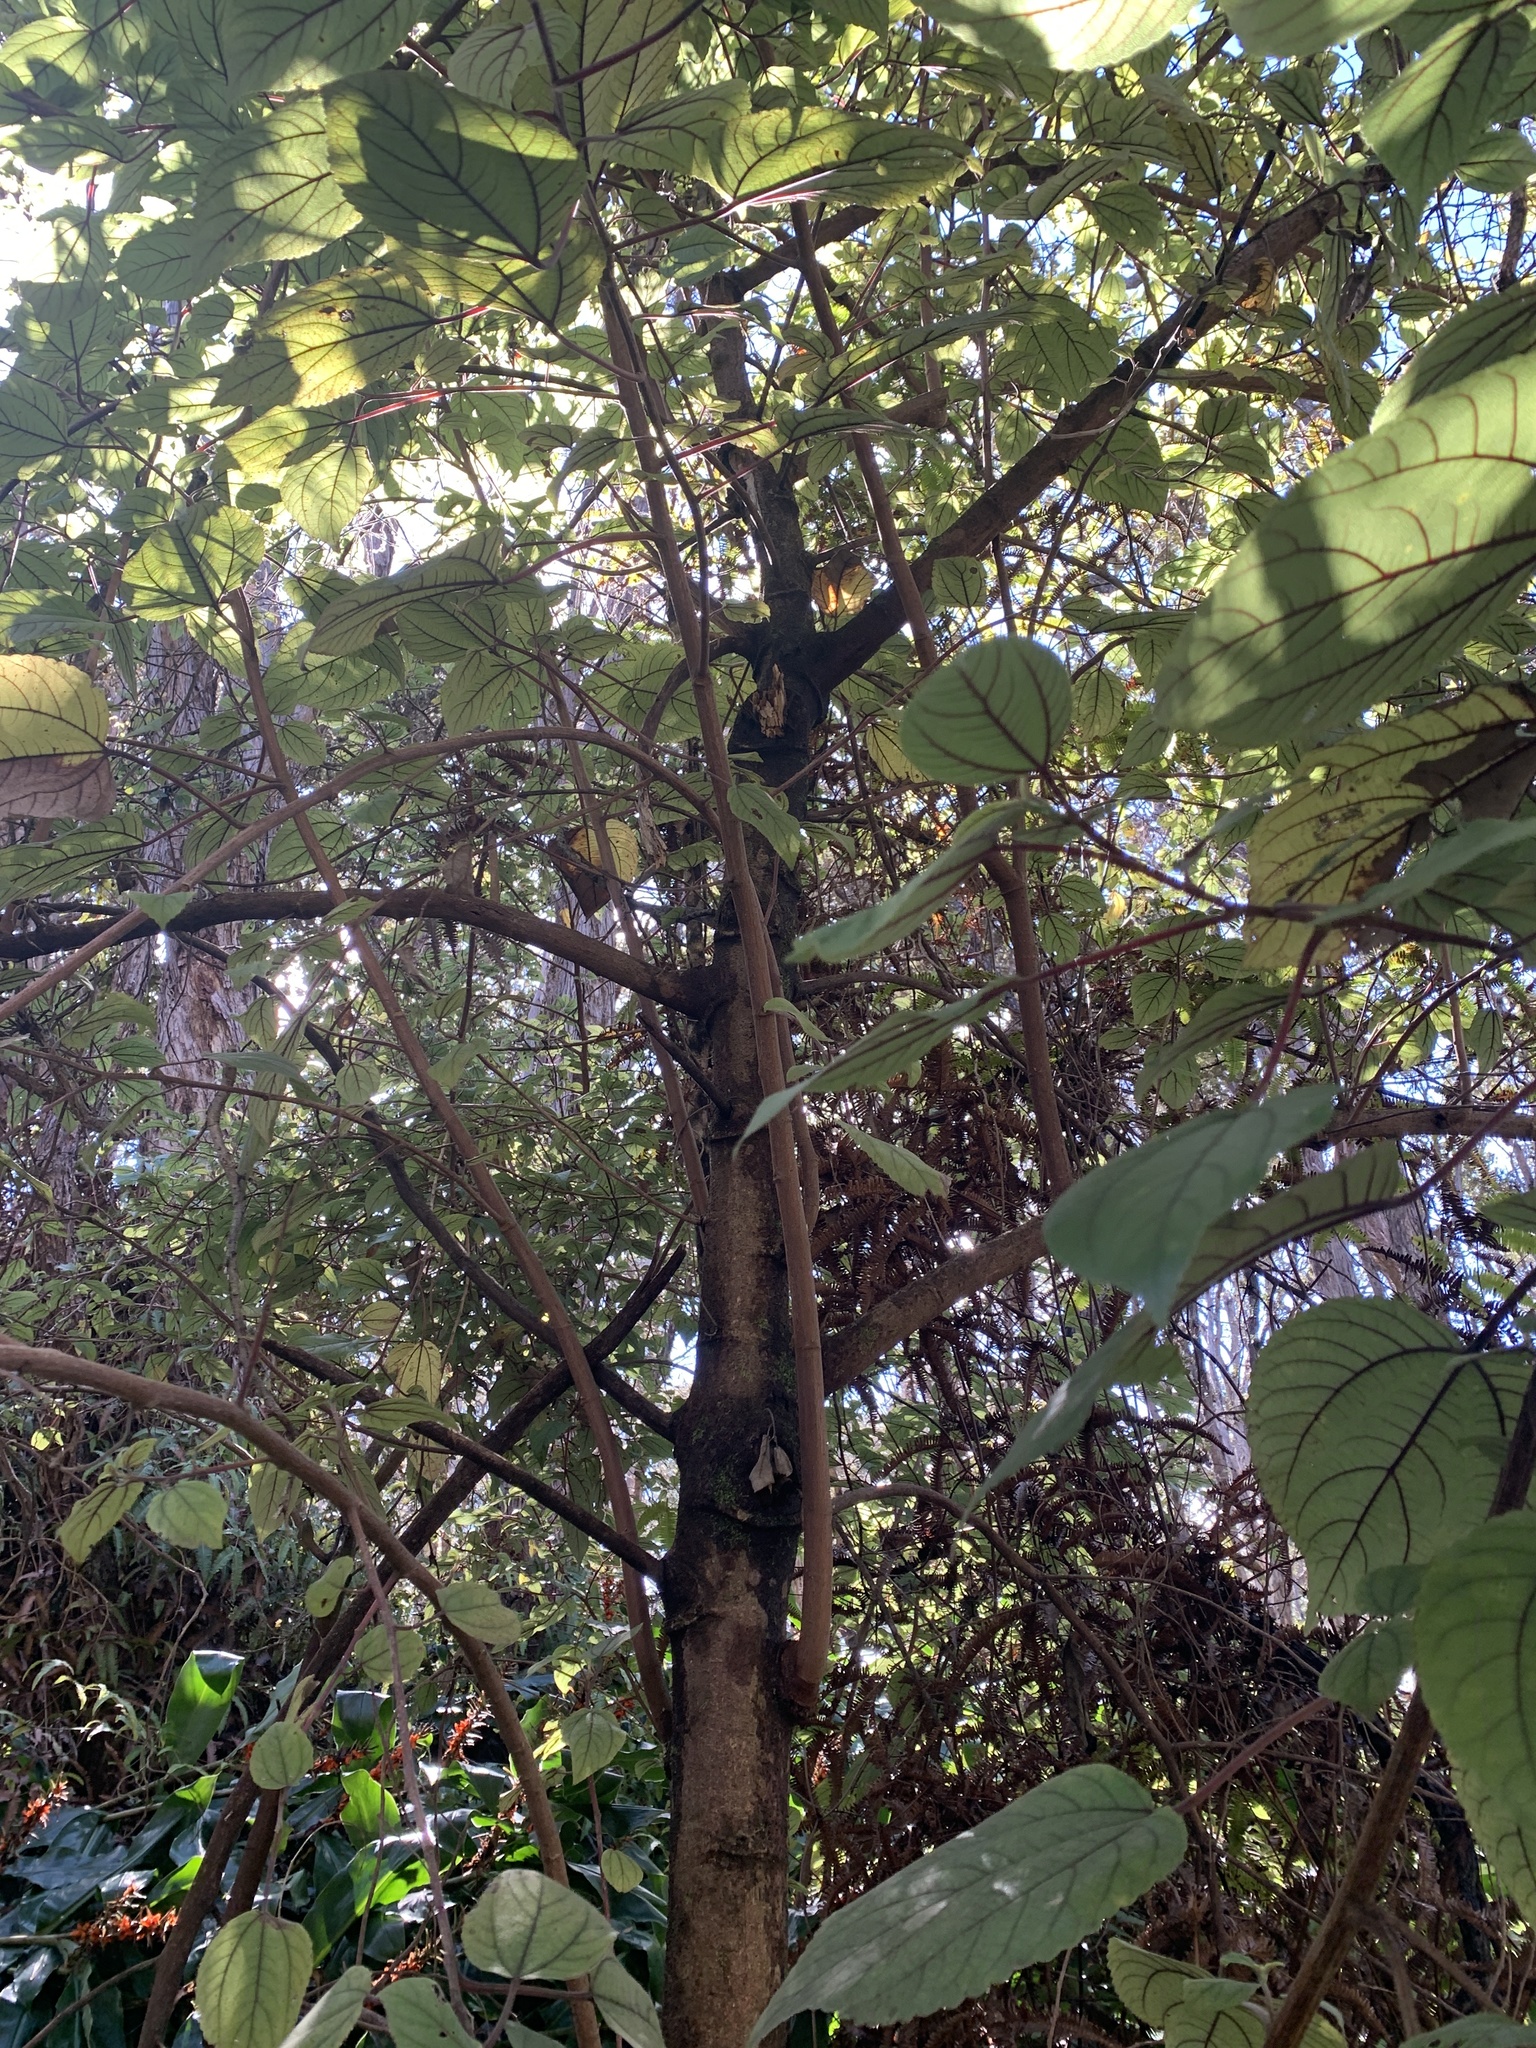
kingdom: Plantae
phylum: Tracheophyta
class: Magnoliopsida
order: Rosales
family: Urticaceae
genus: Pipturus
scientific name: Pipturus albidus
